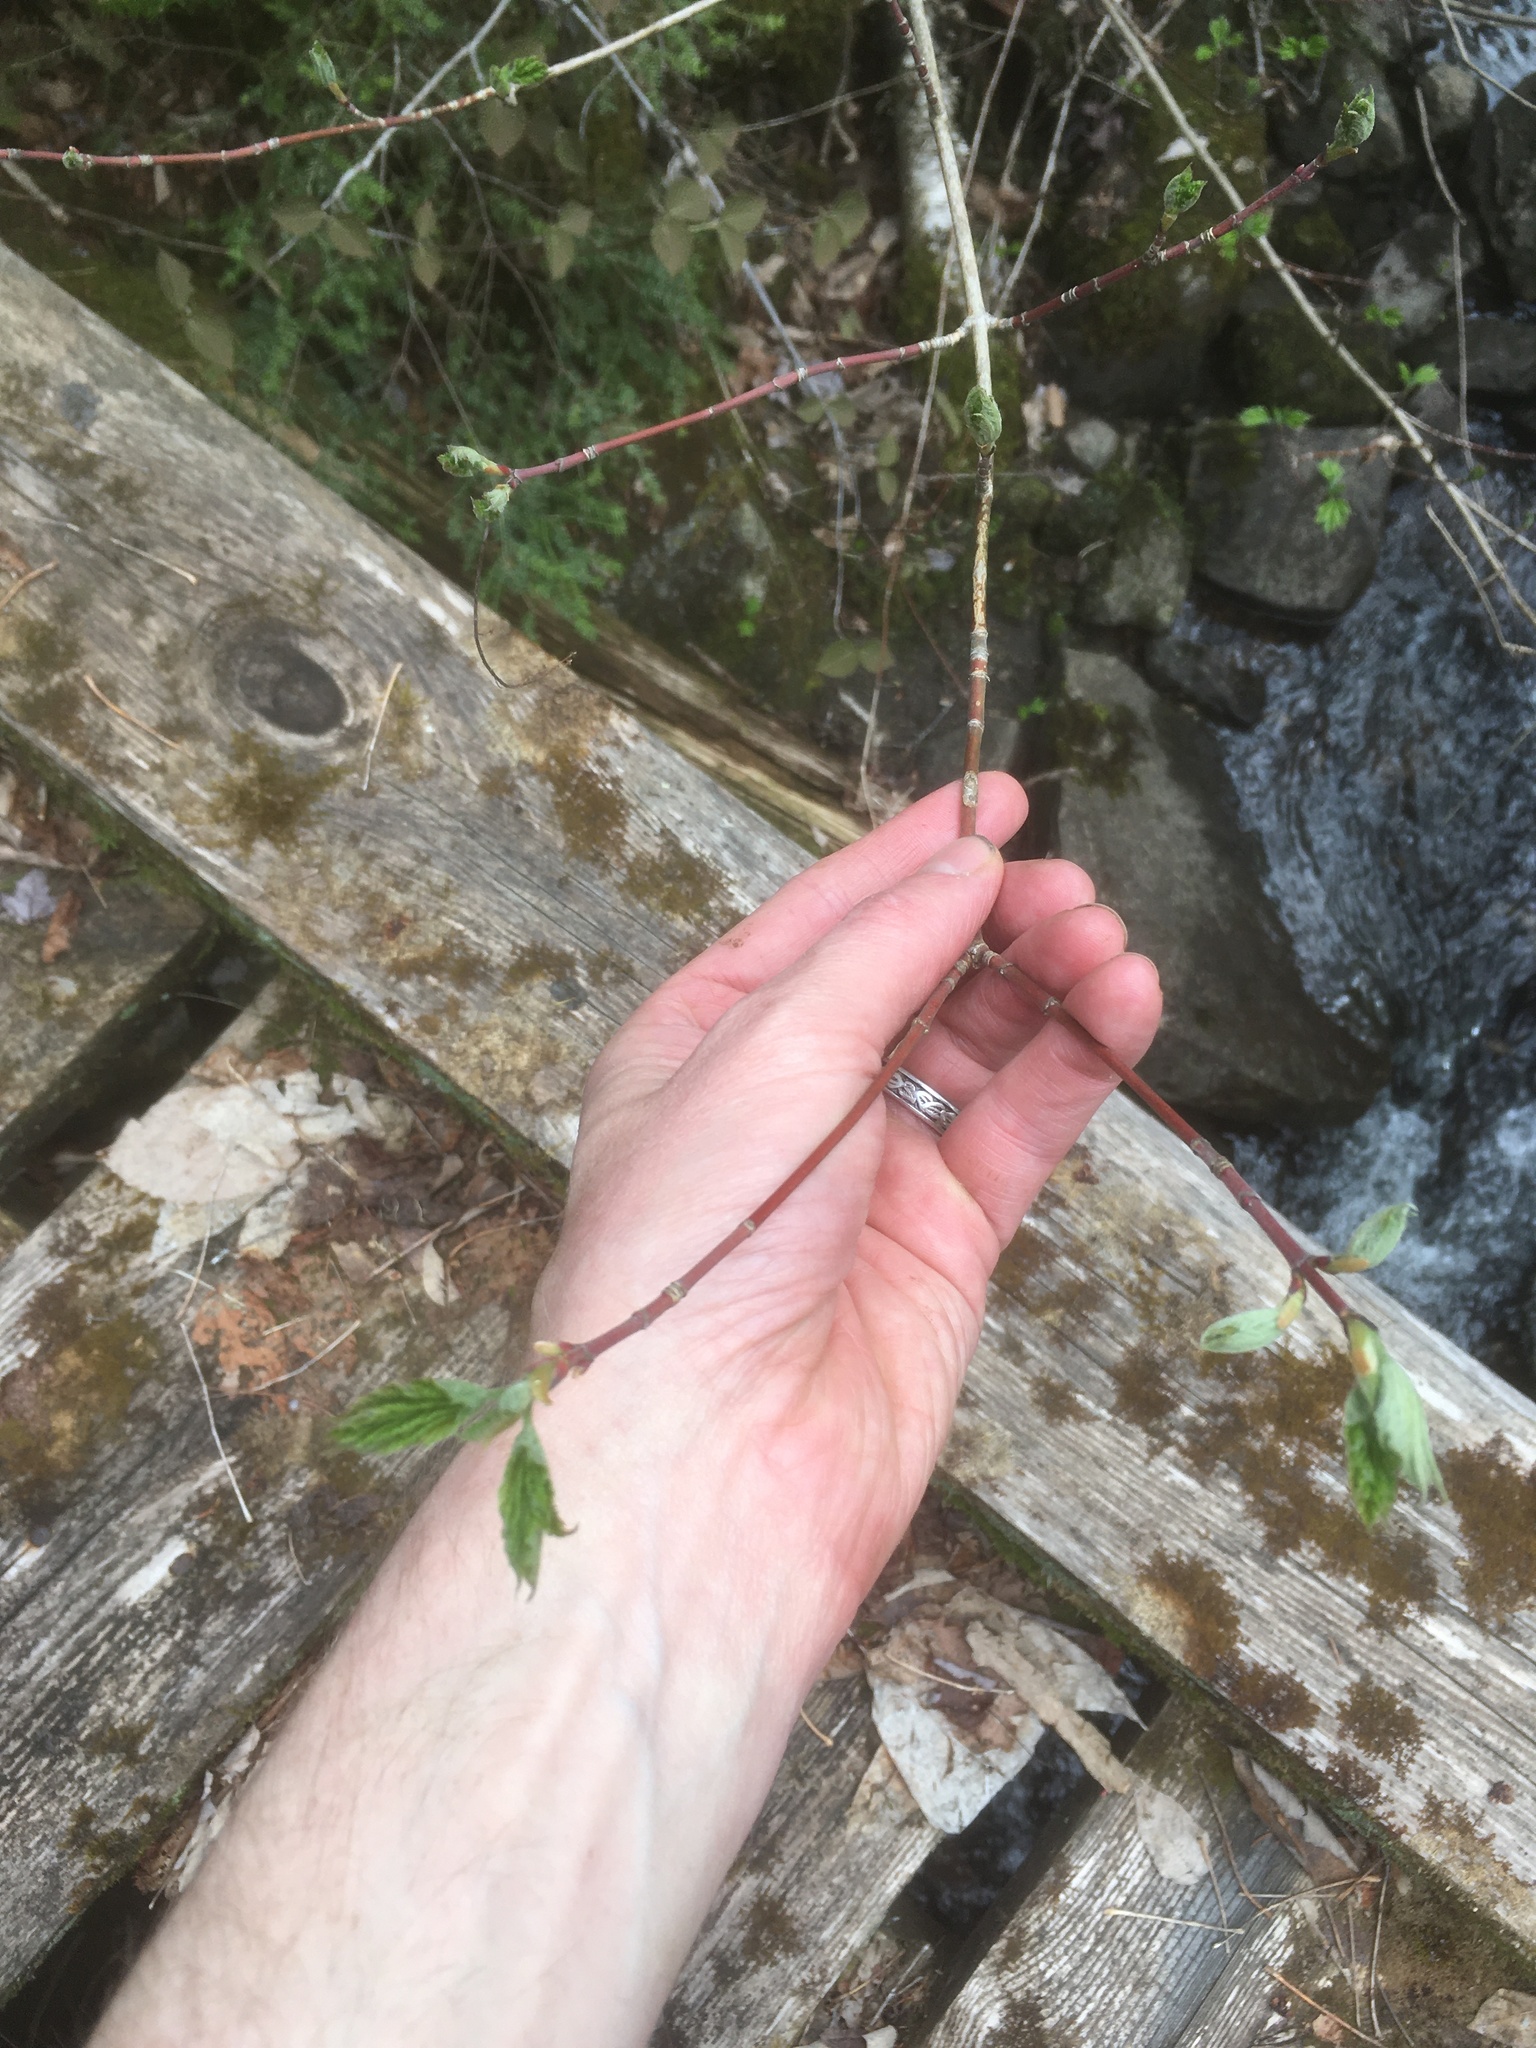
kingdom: Plantae
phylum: Tracheophyta
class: Magnoliopsida
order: Sapindales
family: Sapindaceae
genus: Acer
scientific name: Acer spicatum
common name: Mountain maple
